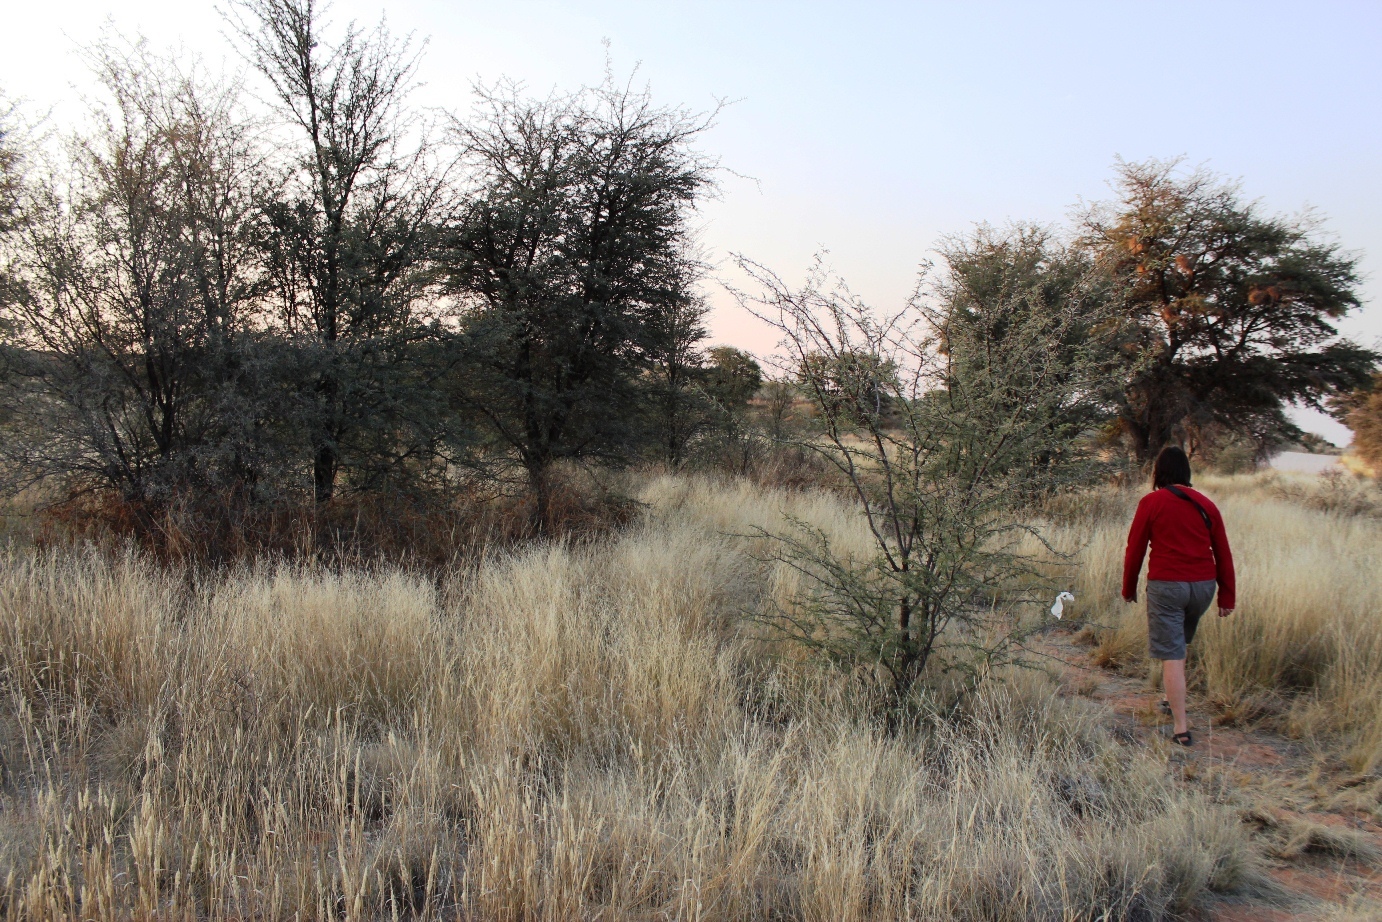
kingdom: Plantae
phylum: Tracheophyta
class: Magnoliopsida
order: Fabales
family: Fabaceae
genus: Vachellia
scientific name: Vachellia erioloba
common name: Camel thorn
